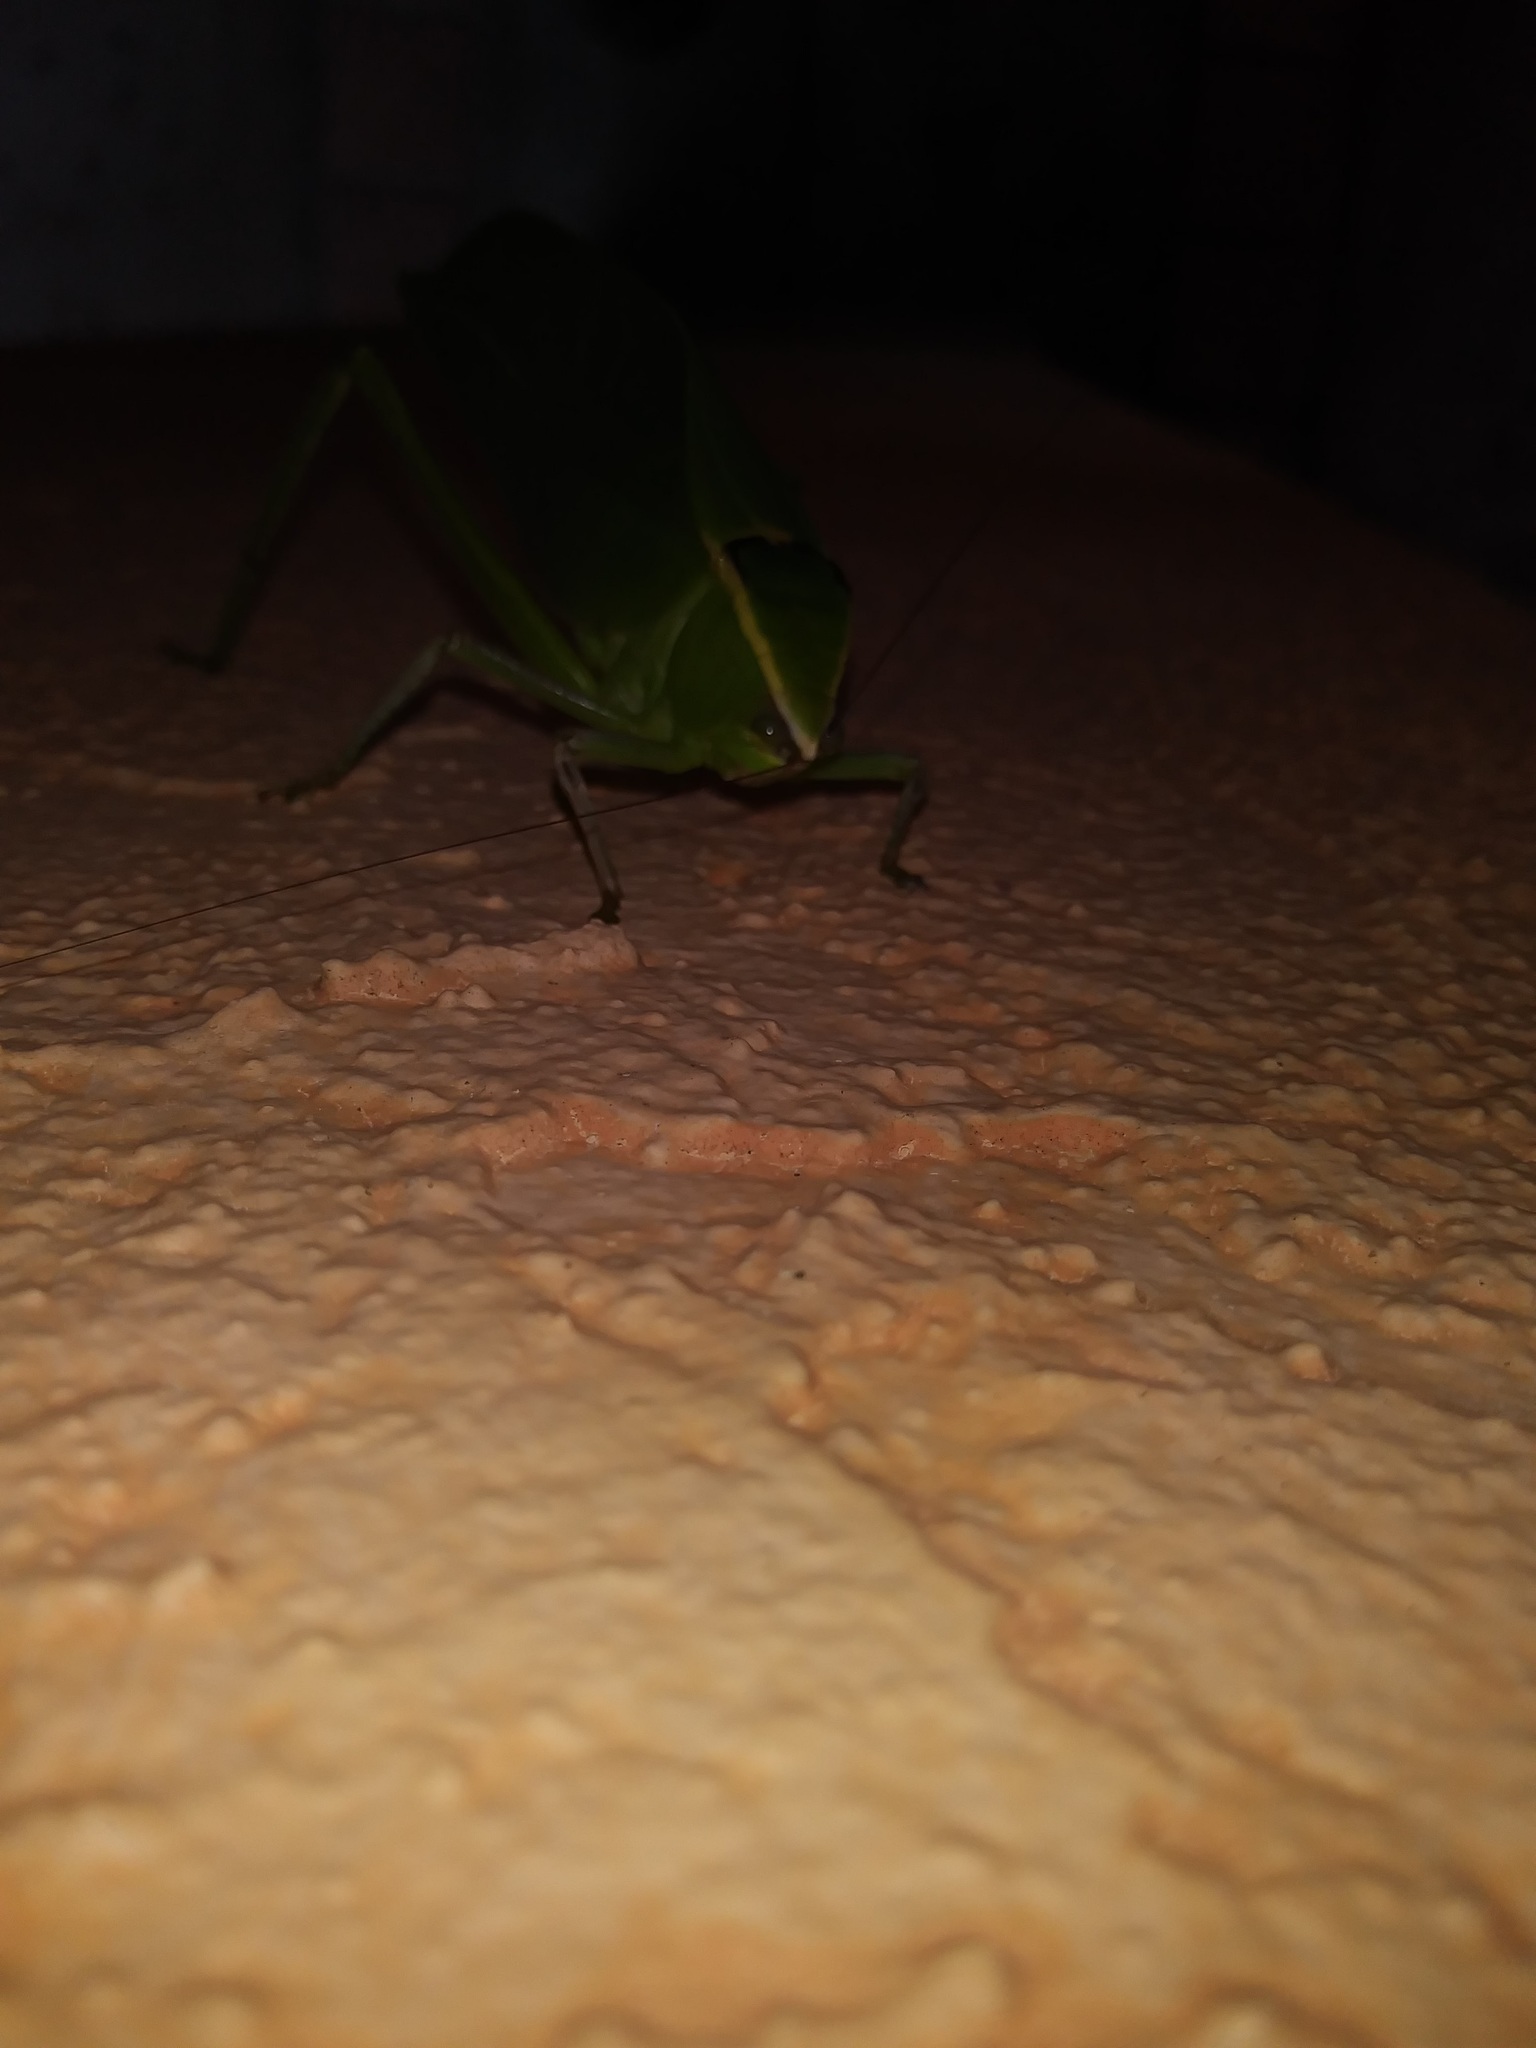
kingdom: Animalia
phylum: Arthropoda
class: Insecta
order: Orthoptera
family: Tettigoniidae
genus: Stilpnochlora
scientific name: Stilpnochlora couloniana
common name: Giant katydid
